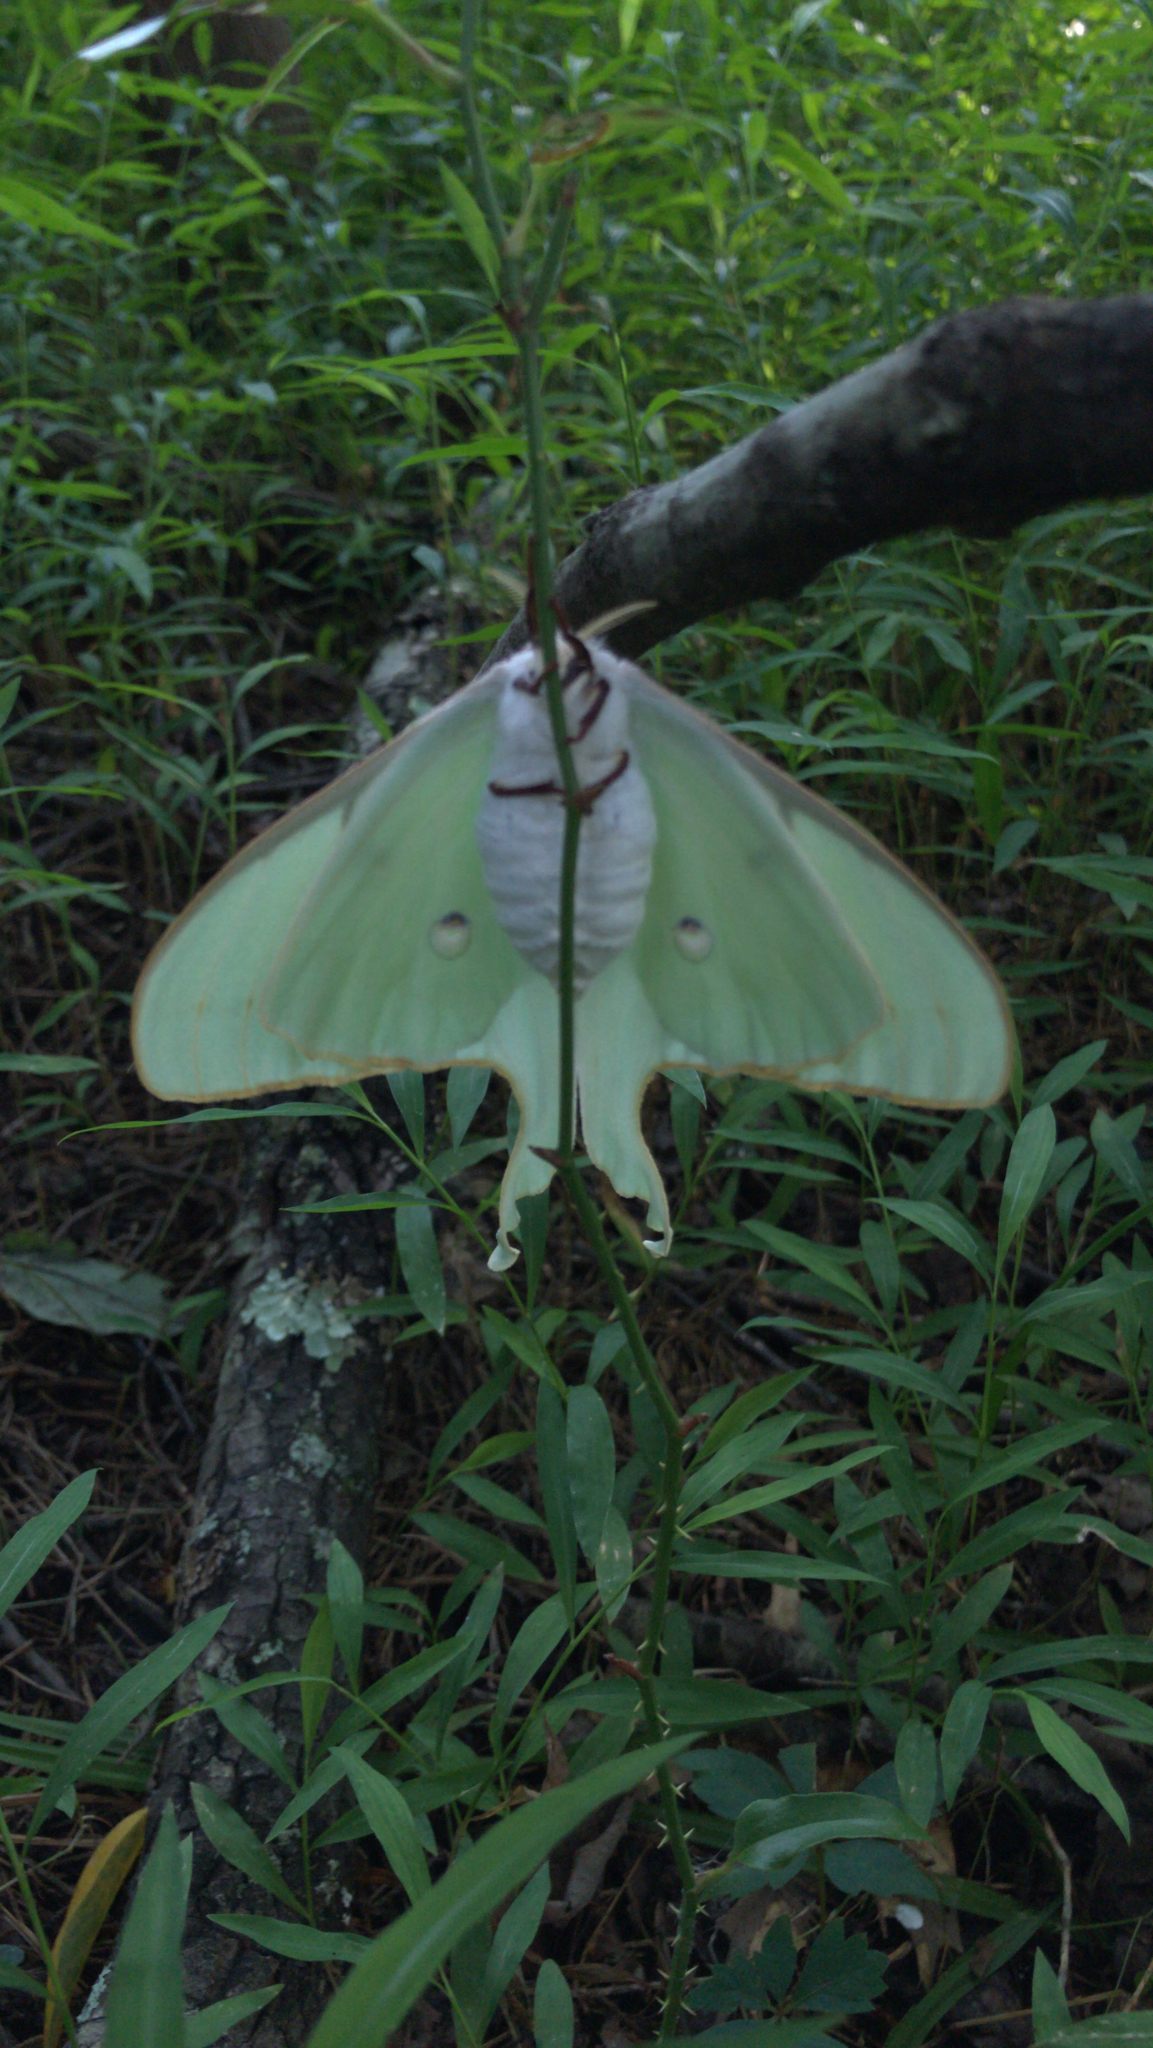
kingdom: Animalia
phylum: Arthropoda
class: Insecta
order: Lepidoptera
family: Saturniidae
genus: Actias
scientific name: Actias luna
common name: Luna moth
